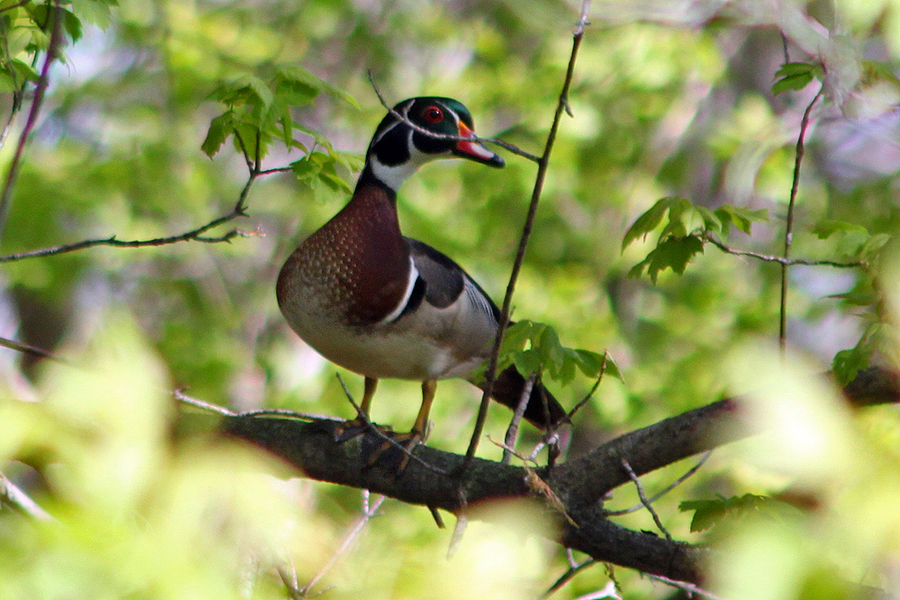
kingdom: Animalia
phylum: Chordata
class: Aves
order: Anseriformes
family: Anatidae
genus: Aix
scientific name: Aix sponsa
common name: Wood duck
